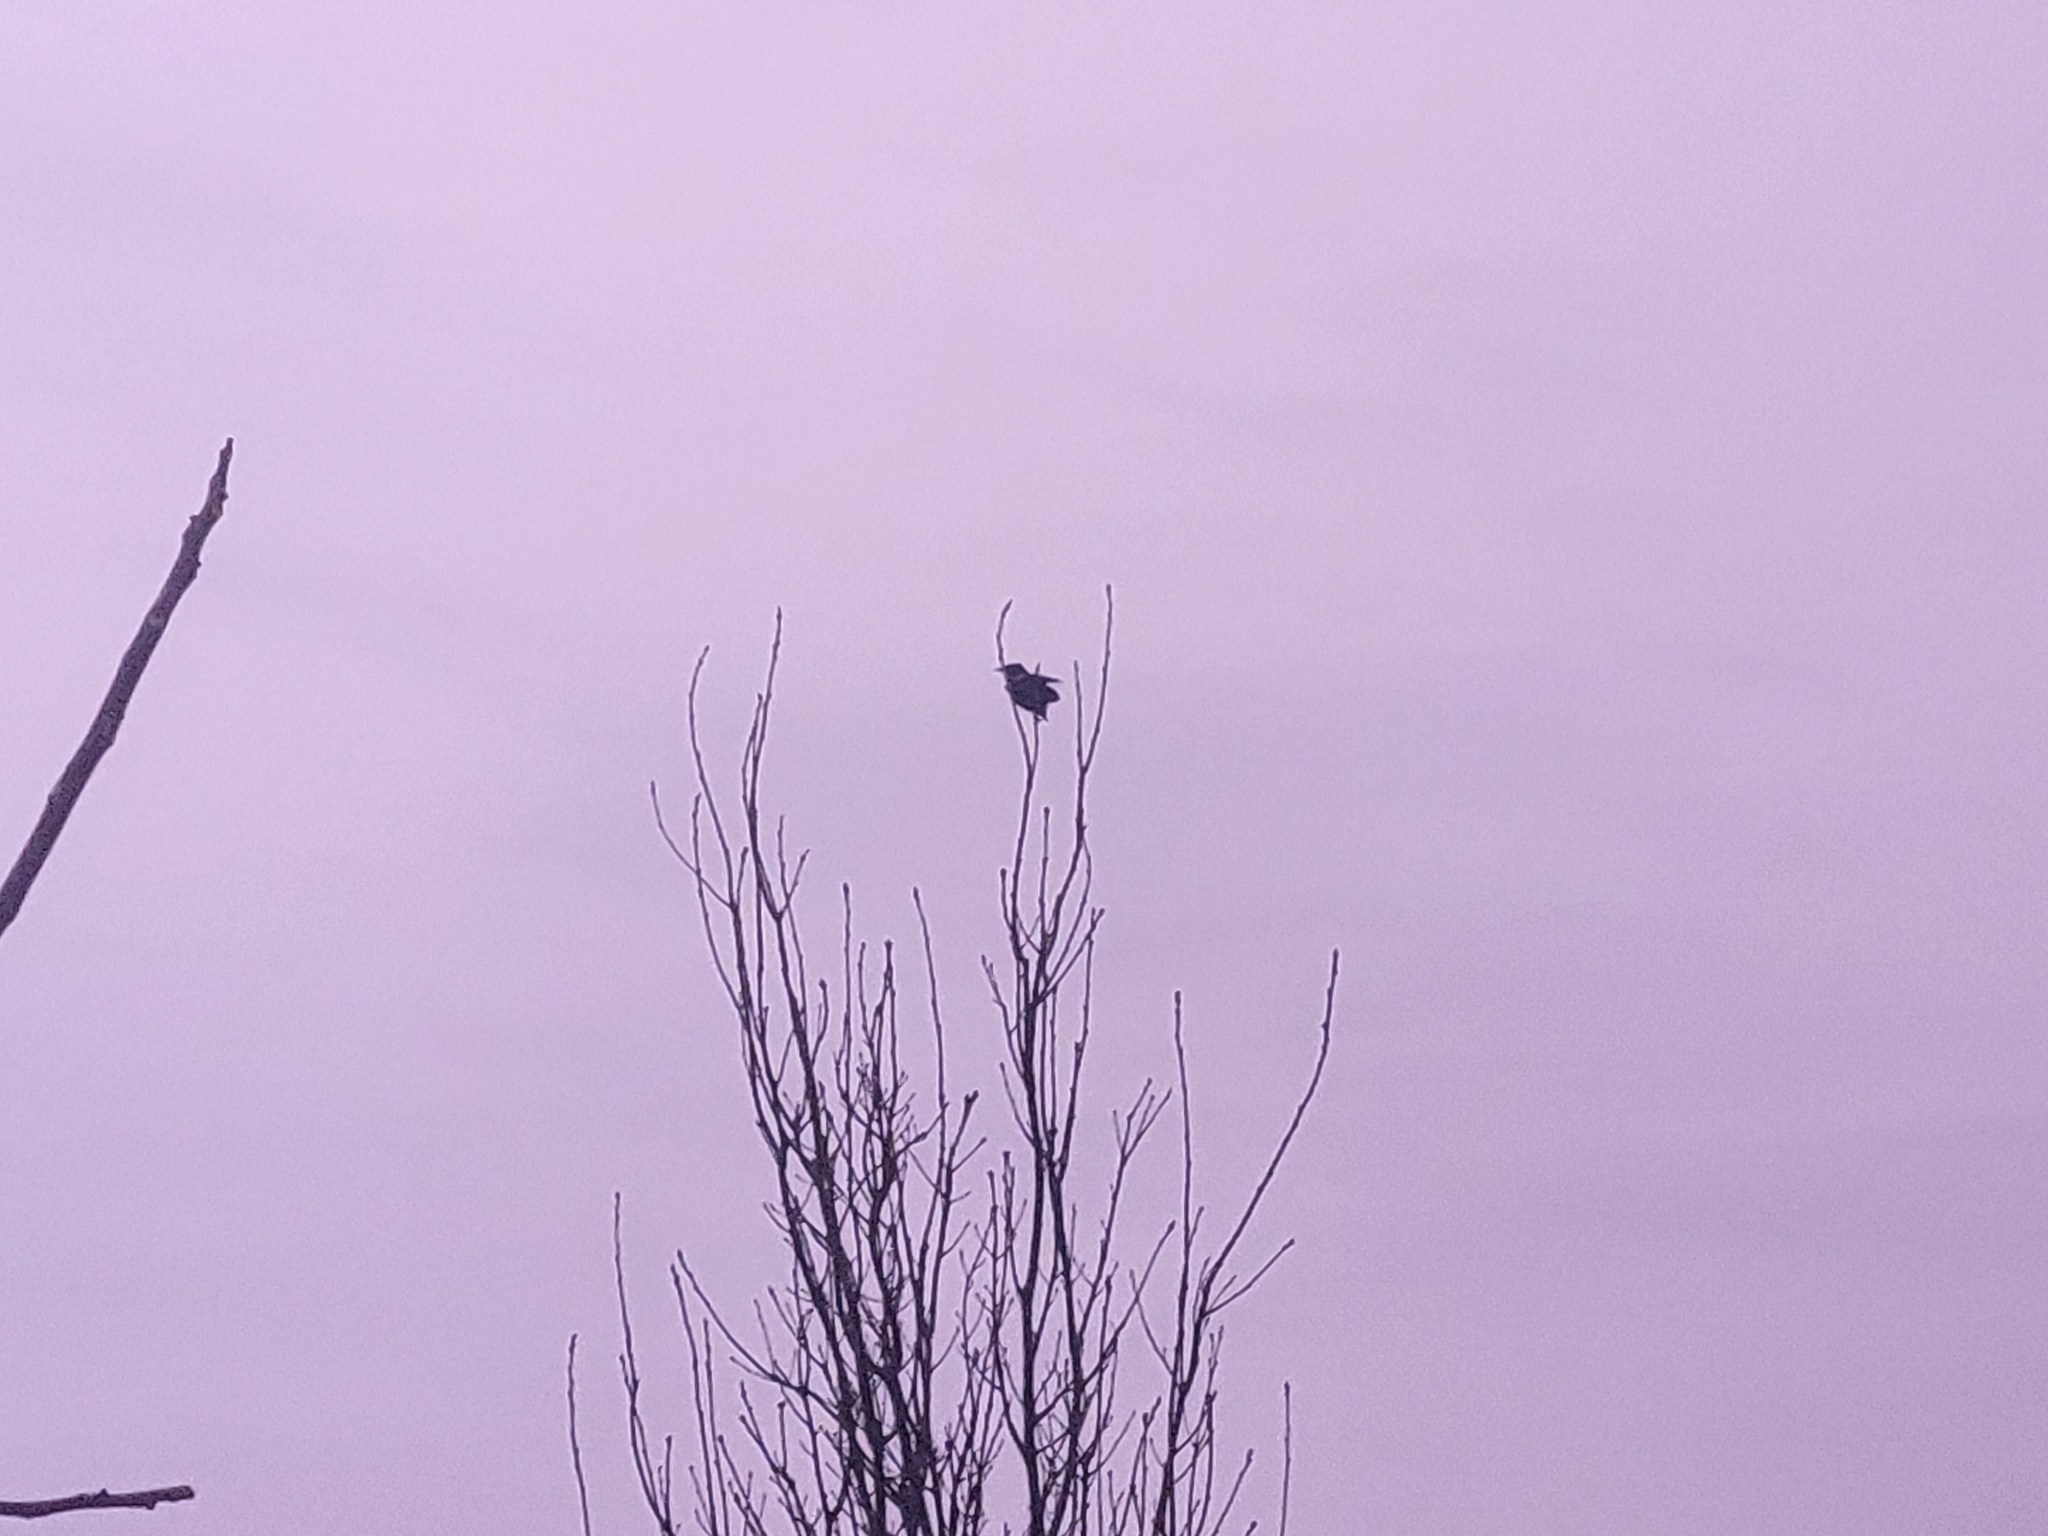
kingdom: Animalia
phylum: Chordata
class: Aves
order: Passeriformes
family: Icteridae
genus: Agelaius
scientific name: Agelaius phoeniceus
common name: Red-winged blackbird
